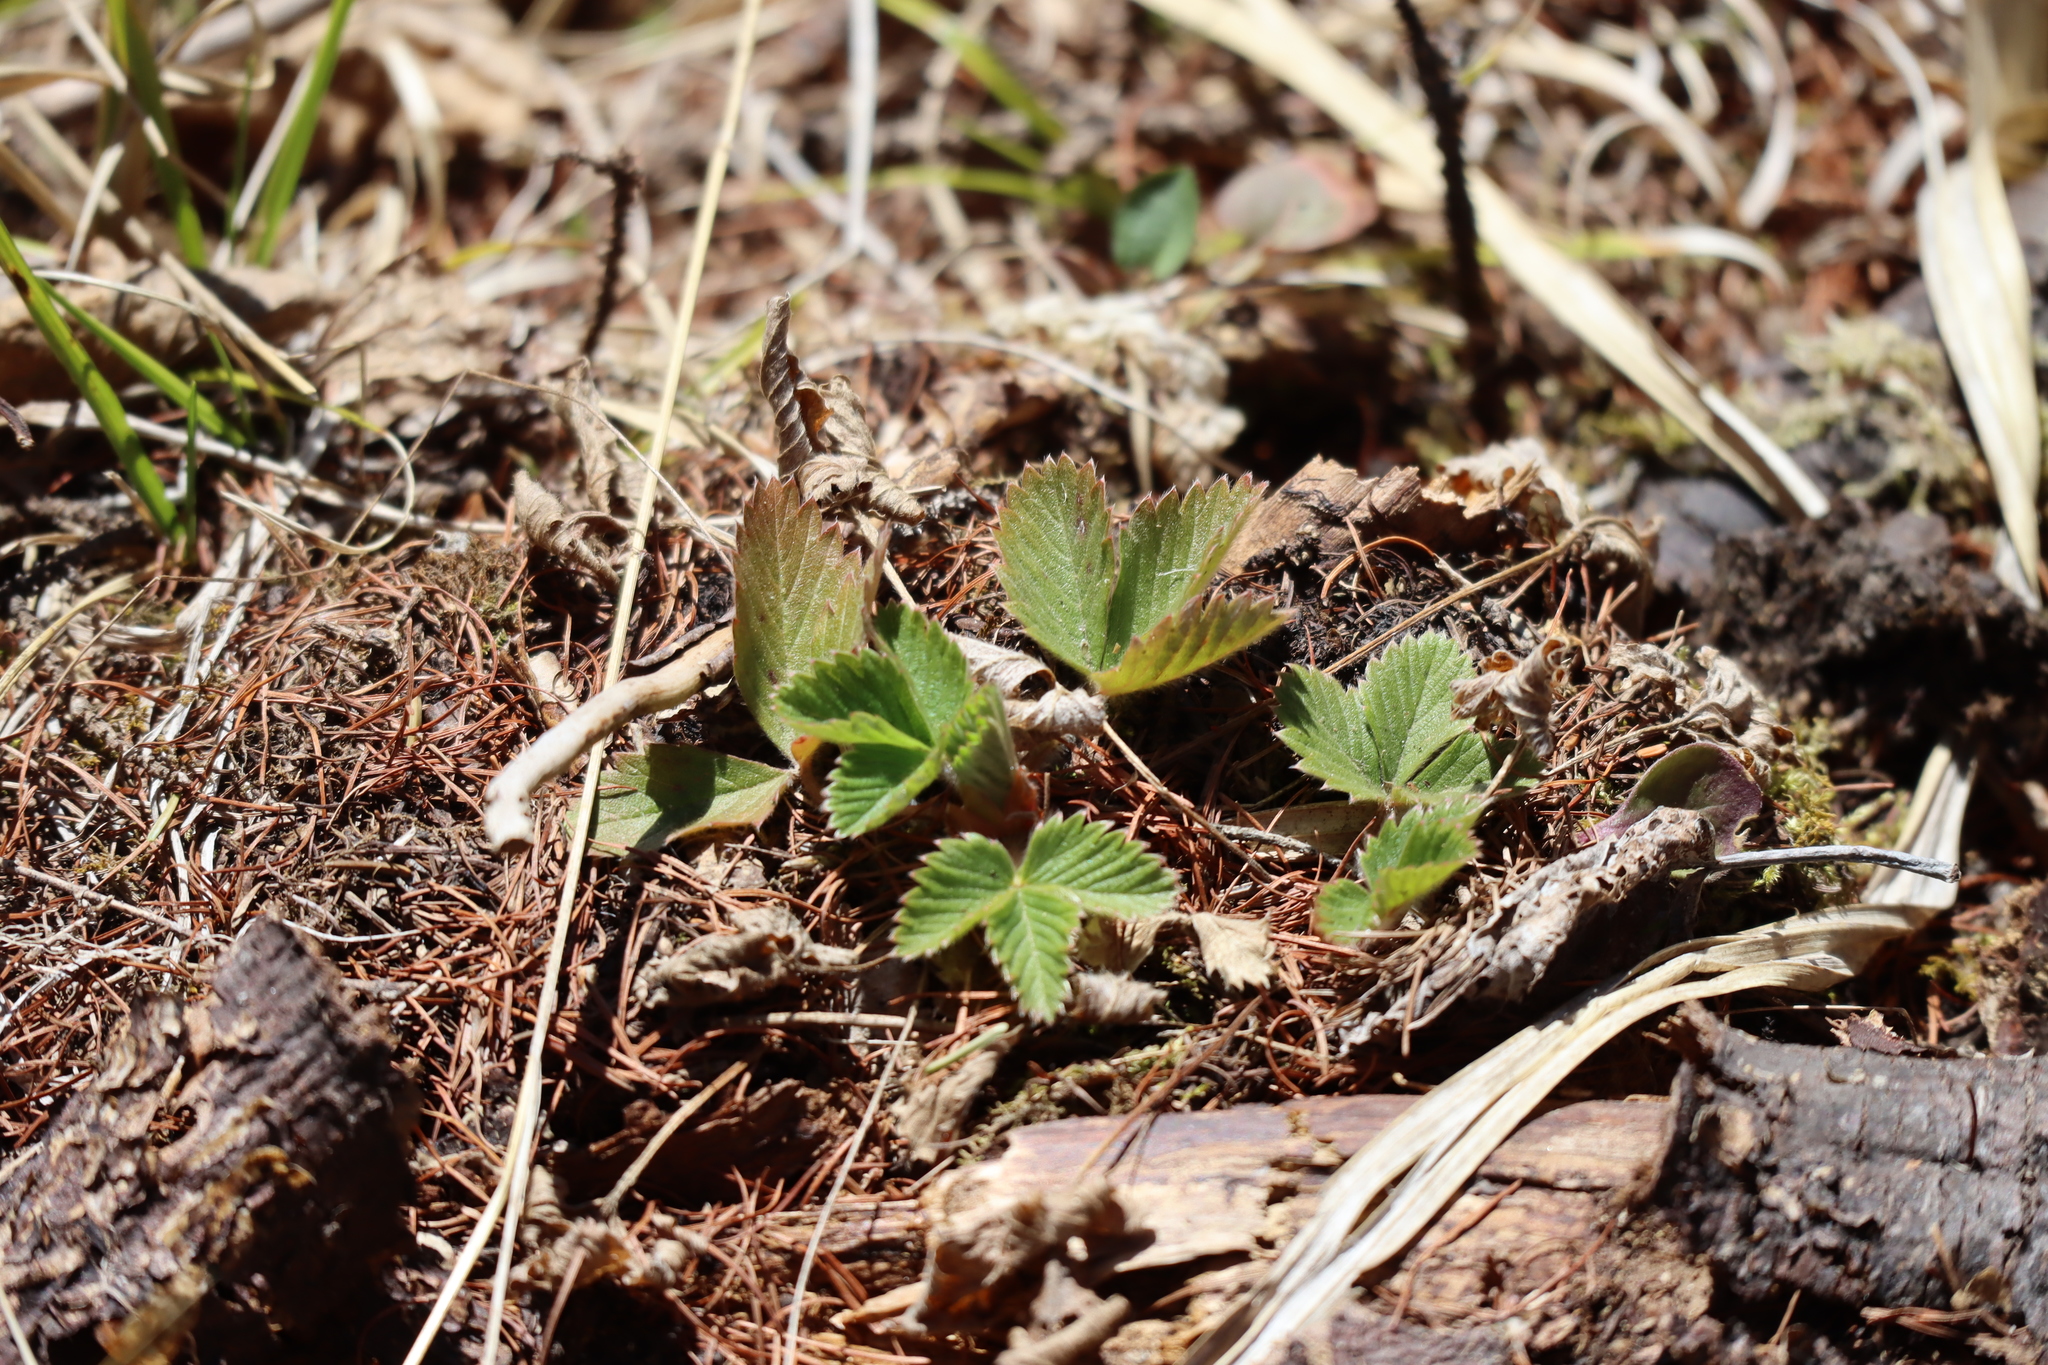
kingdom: Plantae
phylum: Tracheophyta
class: Magnoliopsida
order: Rosales
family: Rosaceae
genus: Fragaria
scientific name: Fragaria virginiana
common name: Thickleaved wild strawberry
